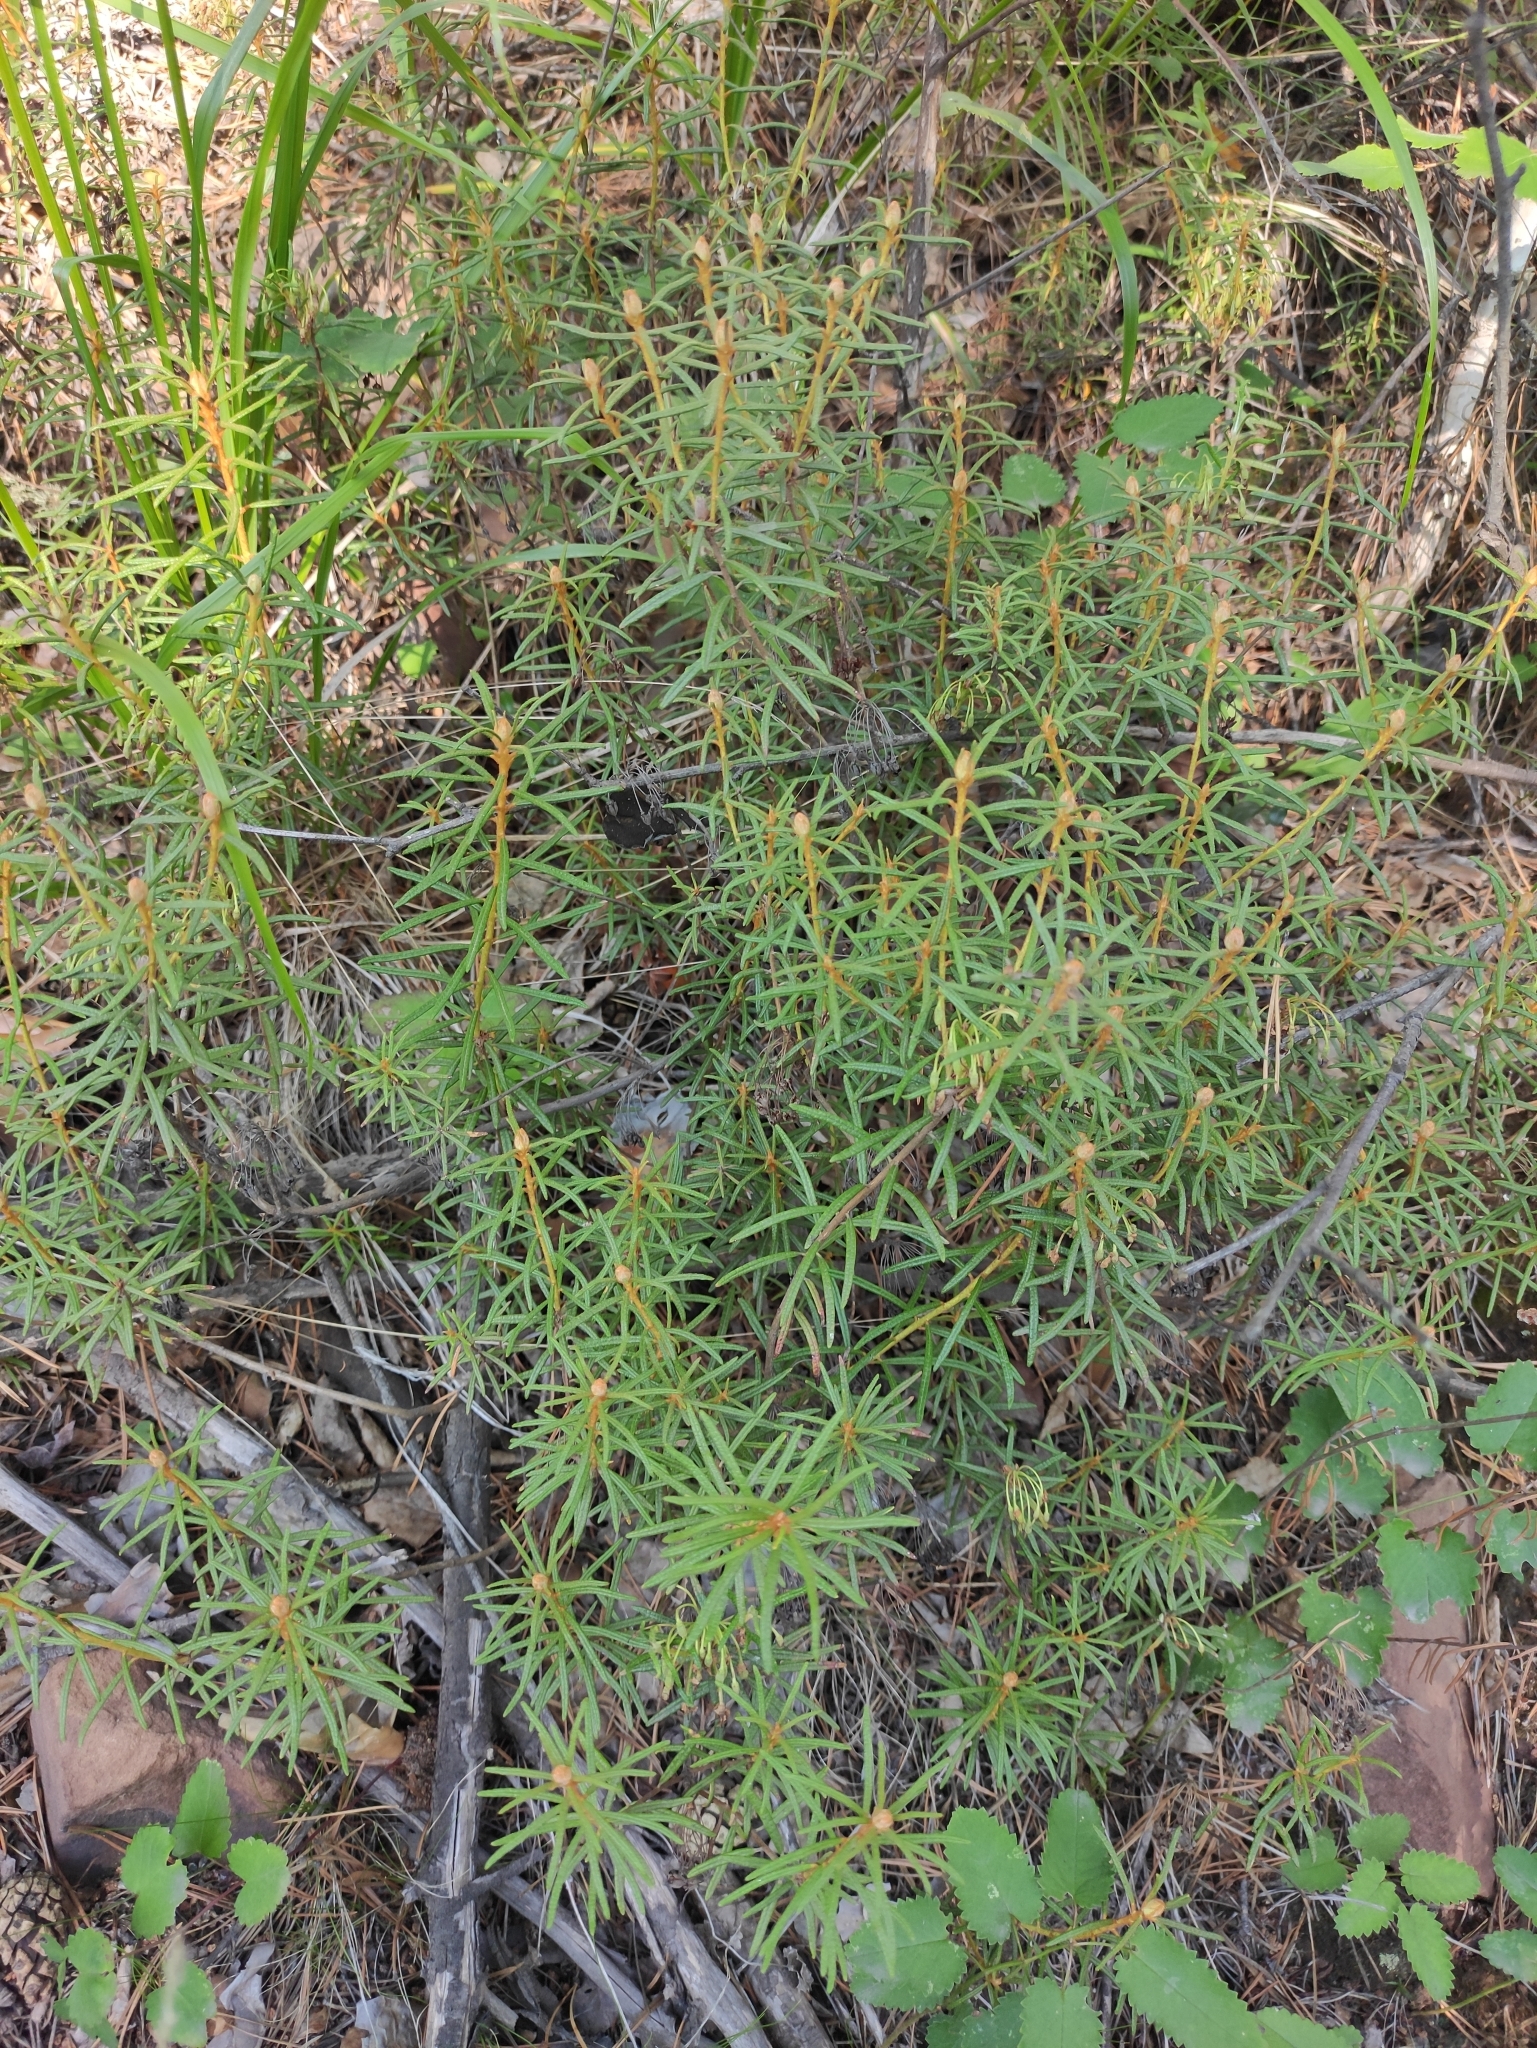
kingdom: Plantae
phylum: Tracheophyta
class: Magnoliopsida
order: Ericales
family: Ericaceae
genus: Rhododendron
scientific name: Rhododendron tomentosum
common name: Marsh labrador tea
